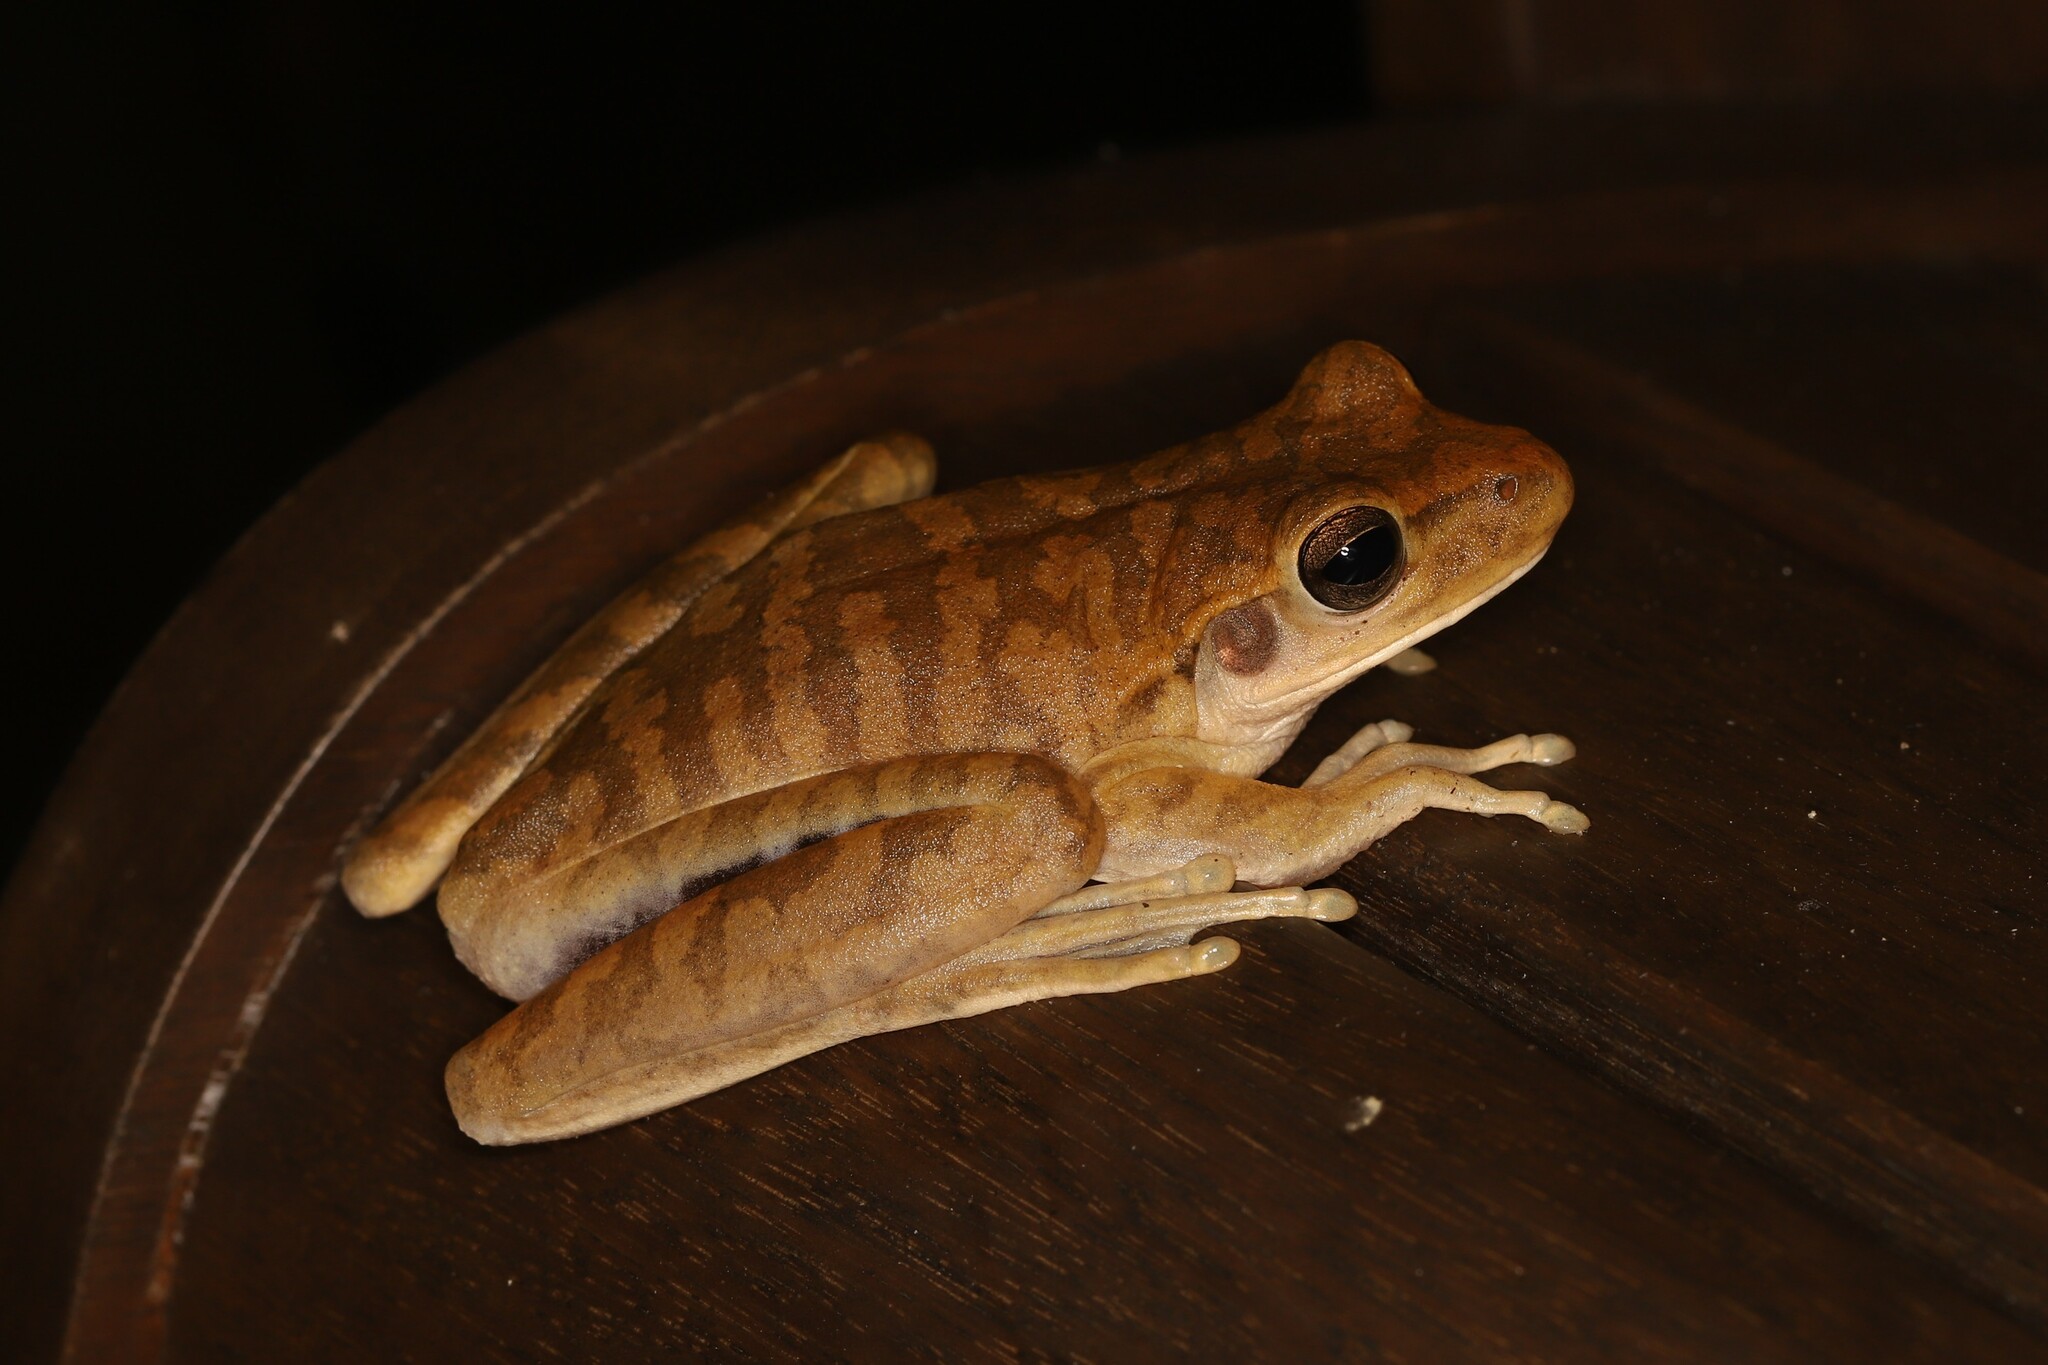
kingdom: Animalia
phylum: Chordata
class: Amphibia
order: Anura
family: Hylidae
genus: Boana
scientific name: Boana raniceps
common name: Chaco treefrog
